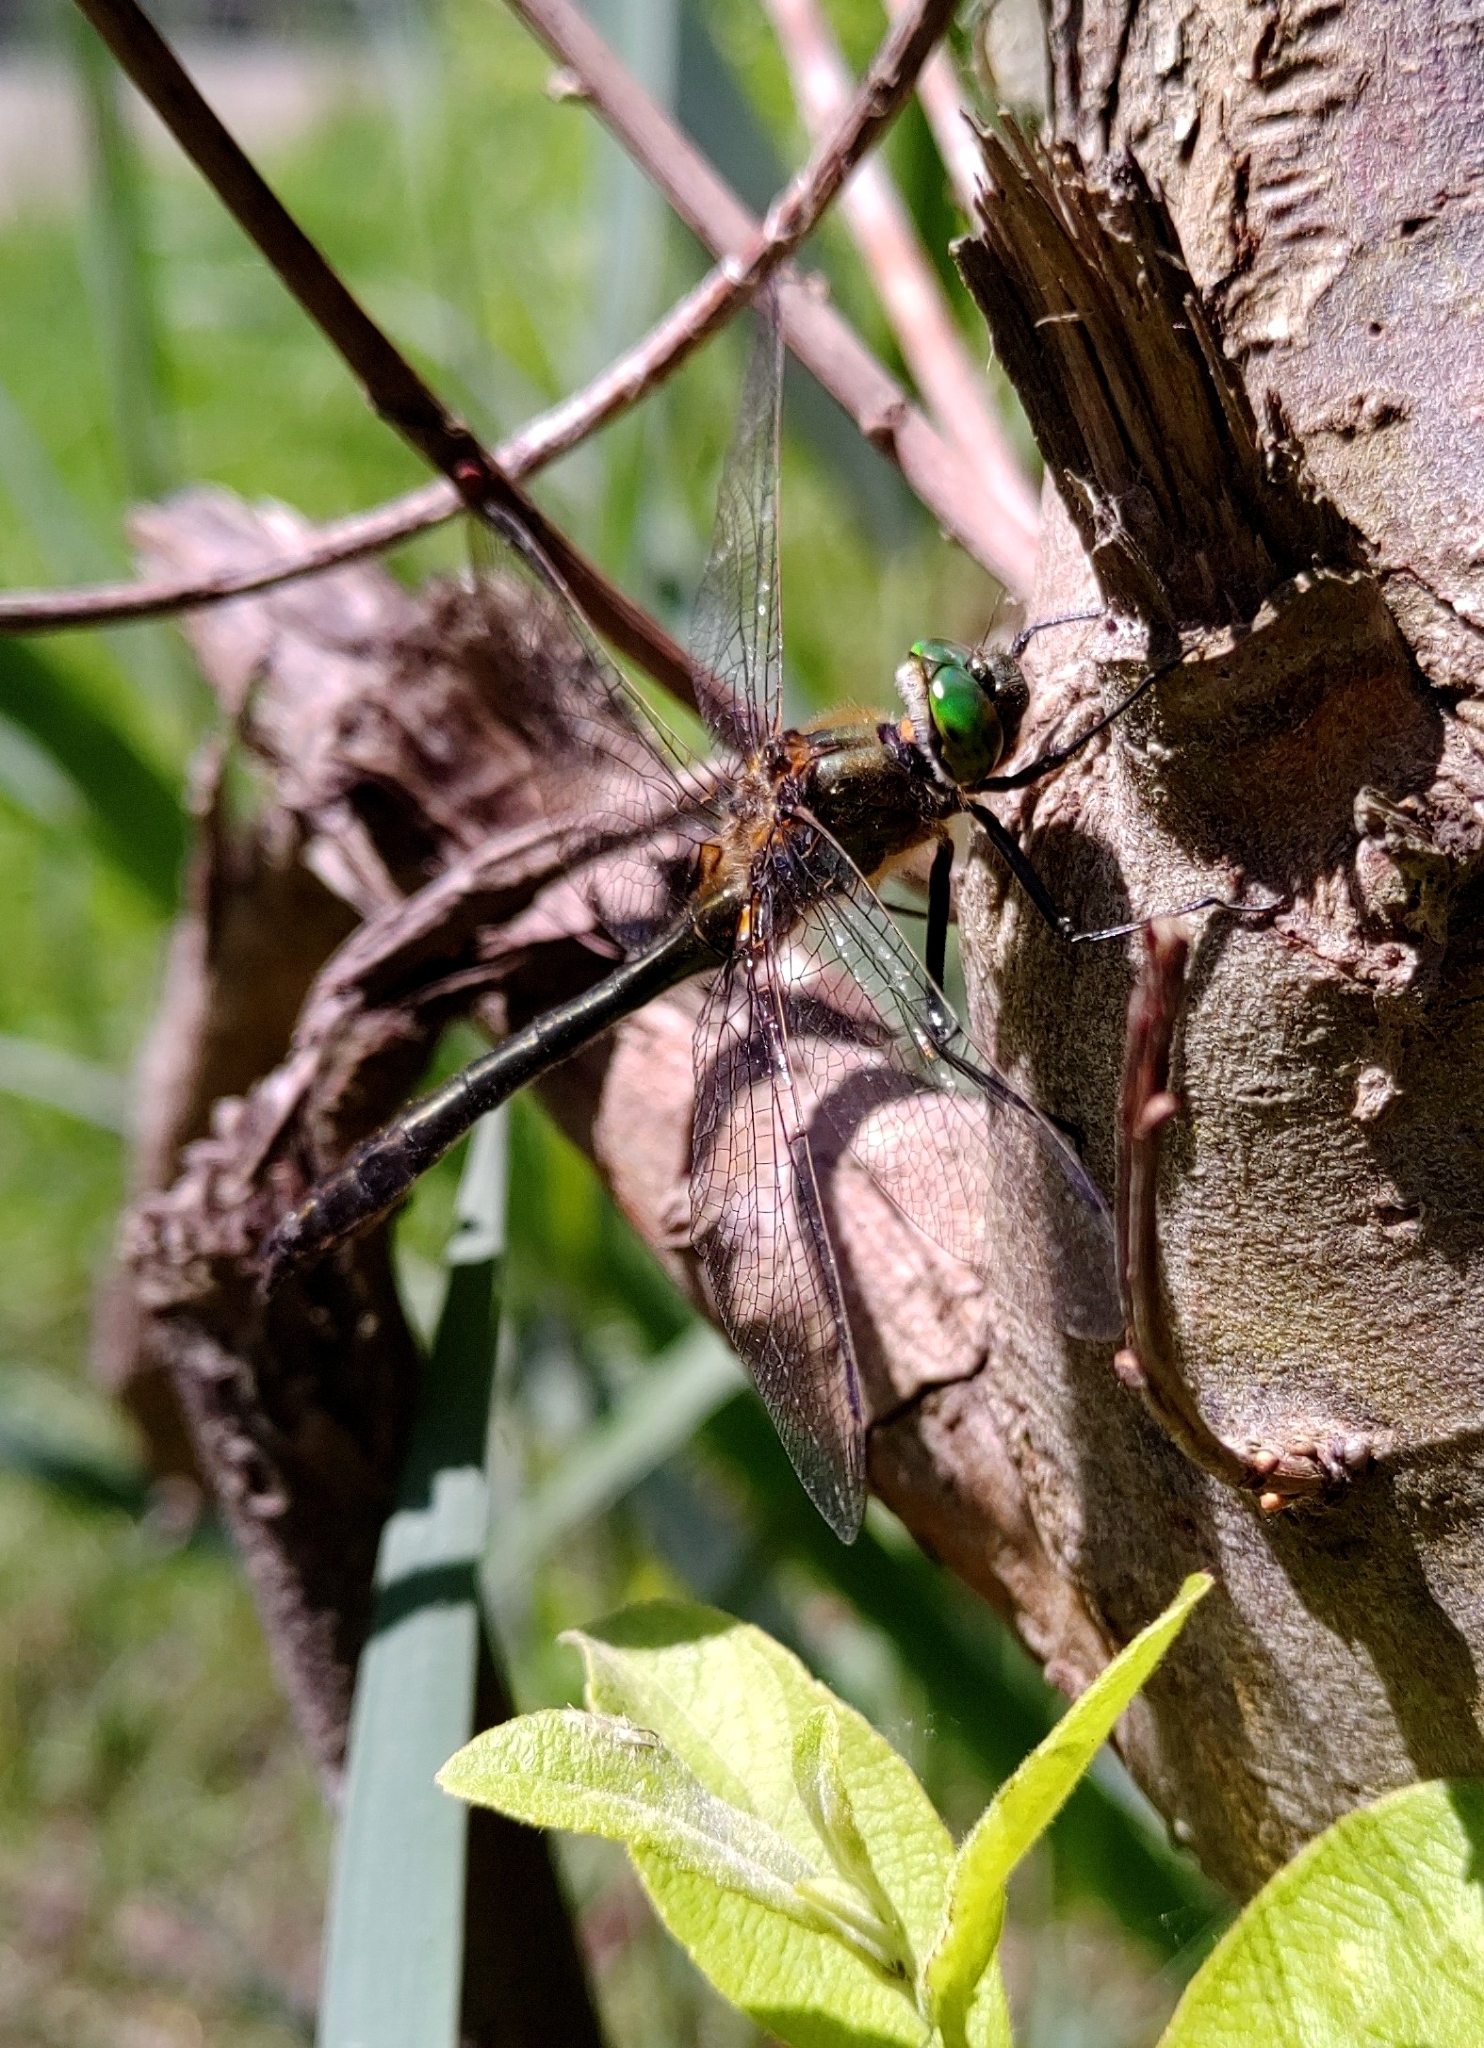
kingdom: Animalia
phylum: Arthropoda
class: Insecta
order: Odonata
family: Corduliidae
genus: Cordulia
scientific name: Cordulia aenea
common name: Downy emerald
